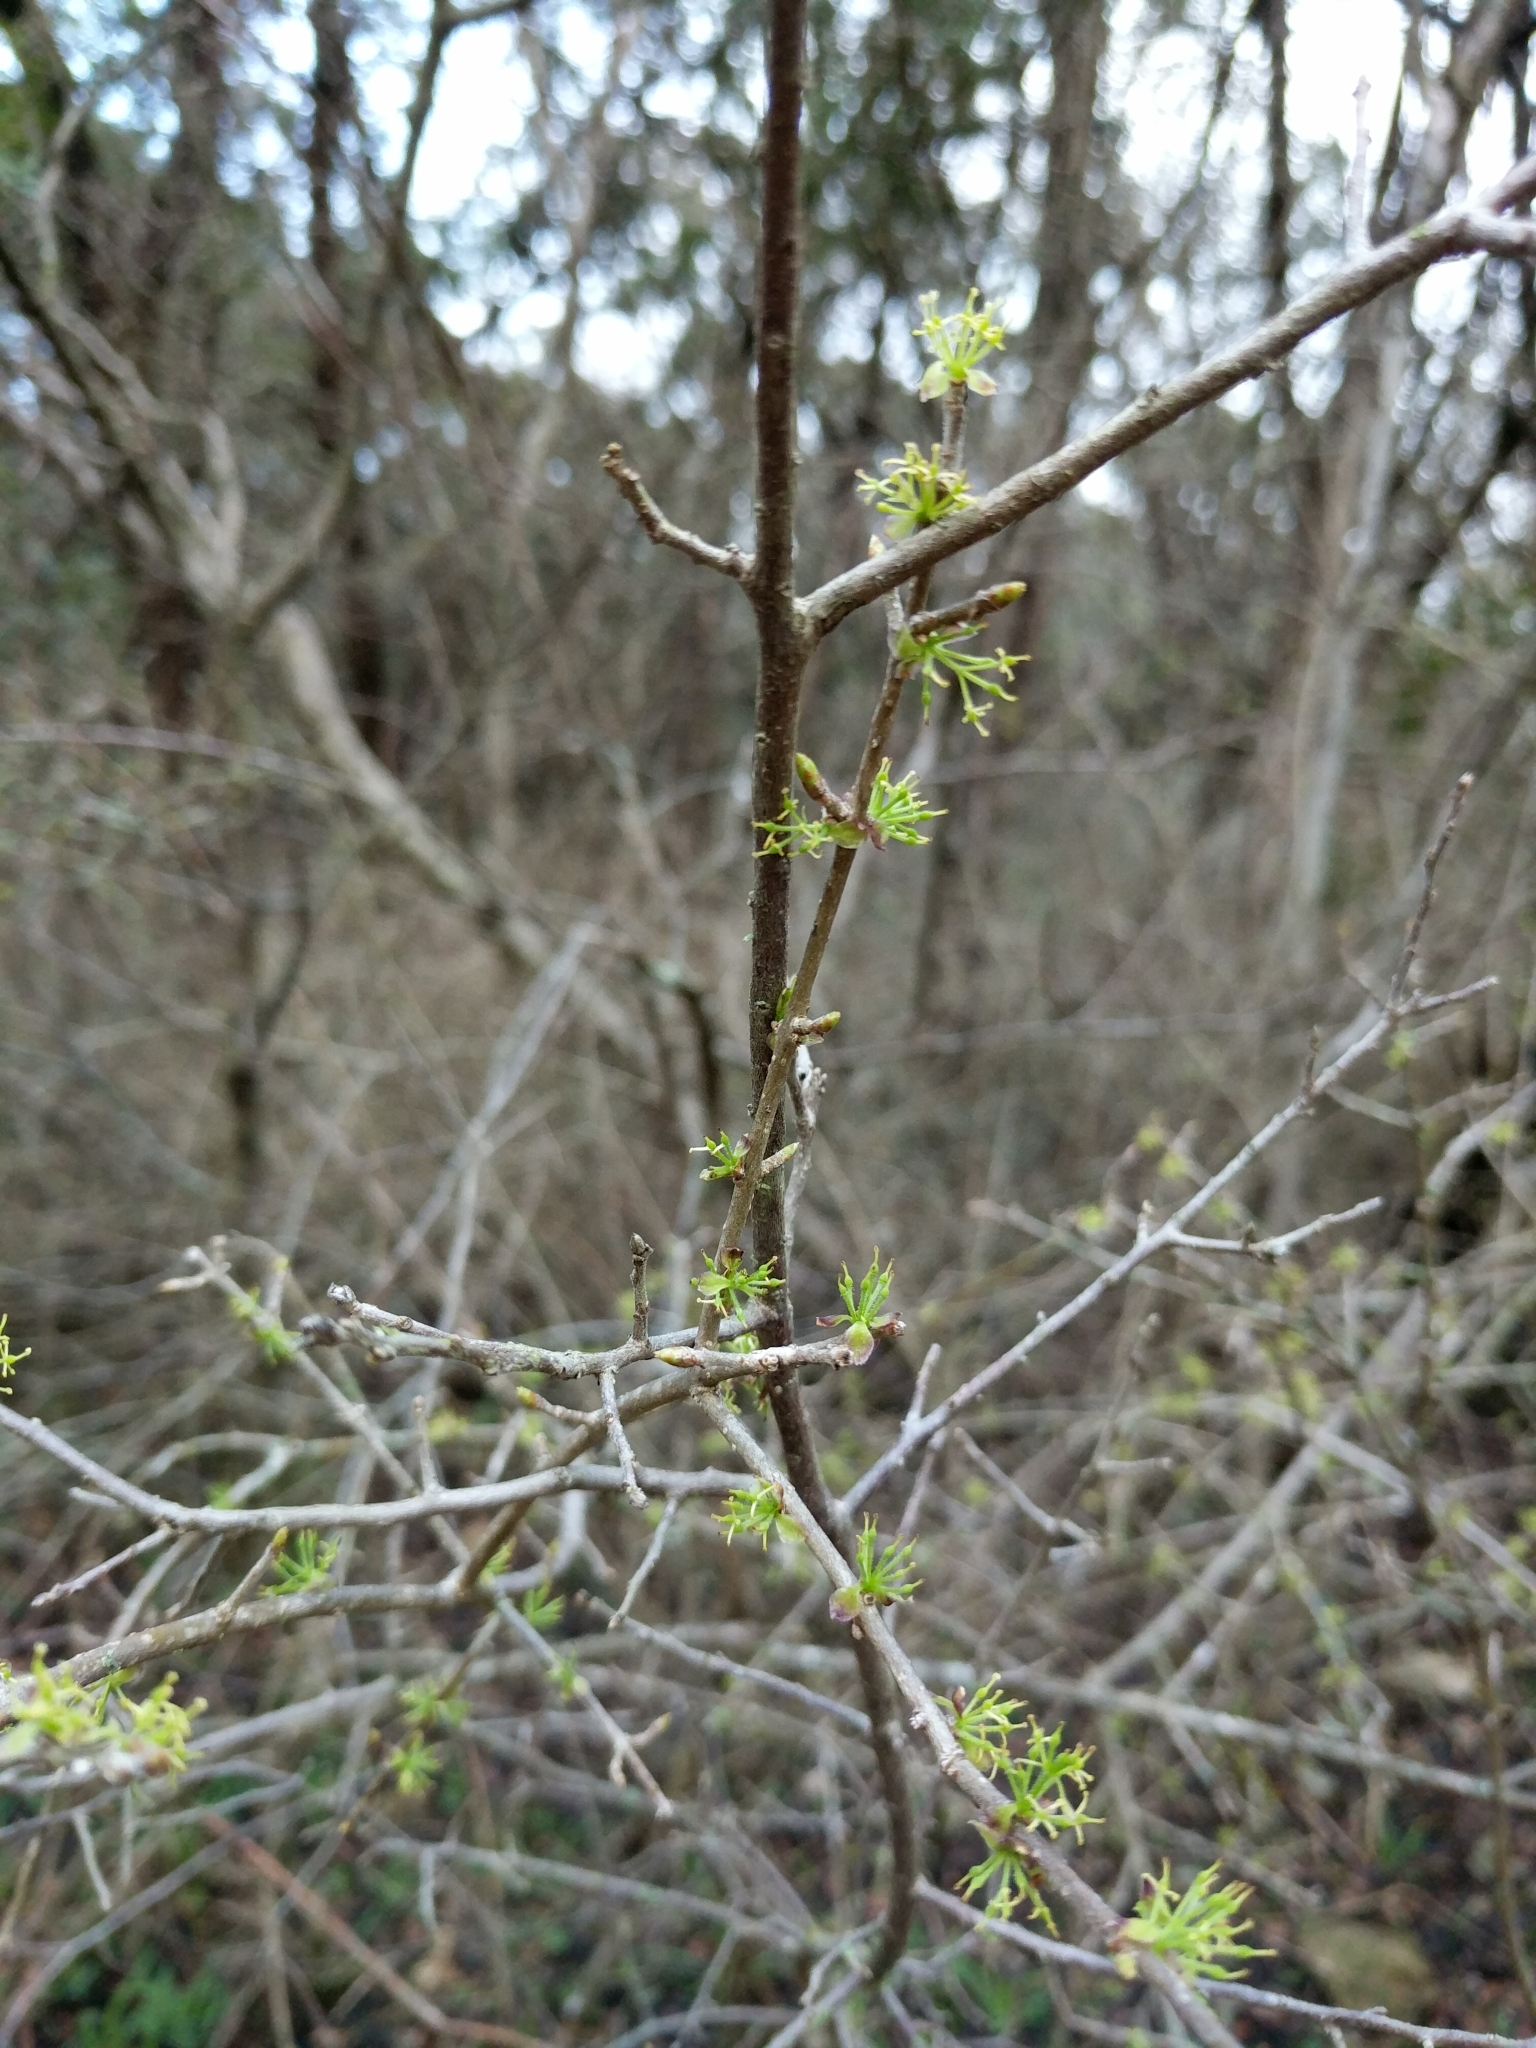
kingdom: Plantae
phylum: Tracheophyta
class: Magnoliopsida
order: Lamiales
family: Oleaceae
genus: Forestiera
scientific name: Forestiera pubescens
